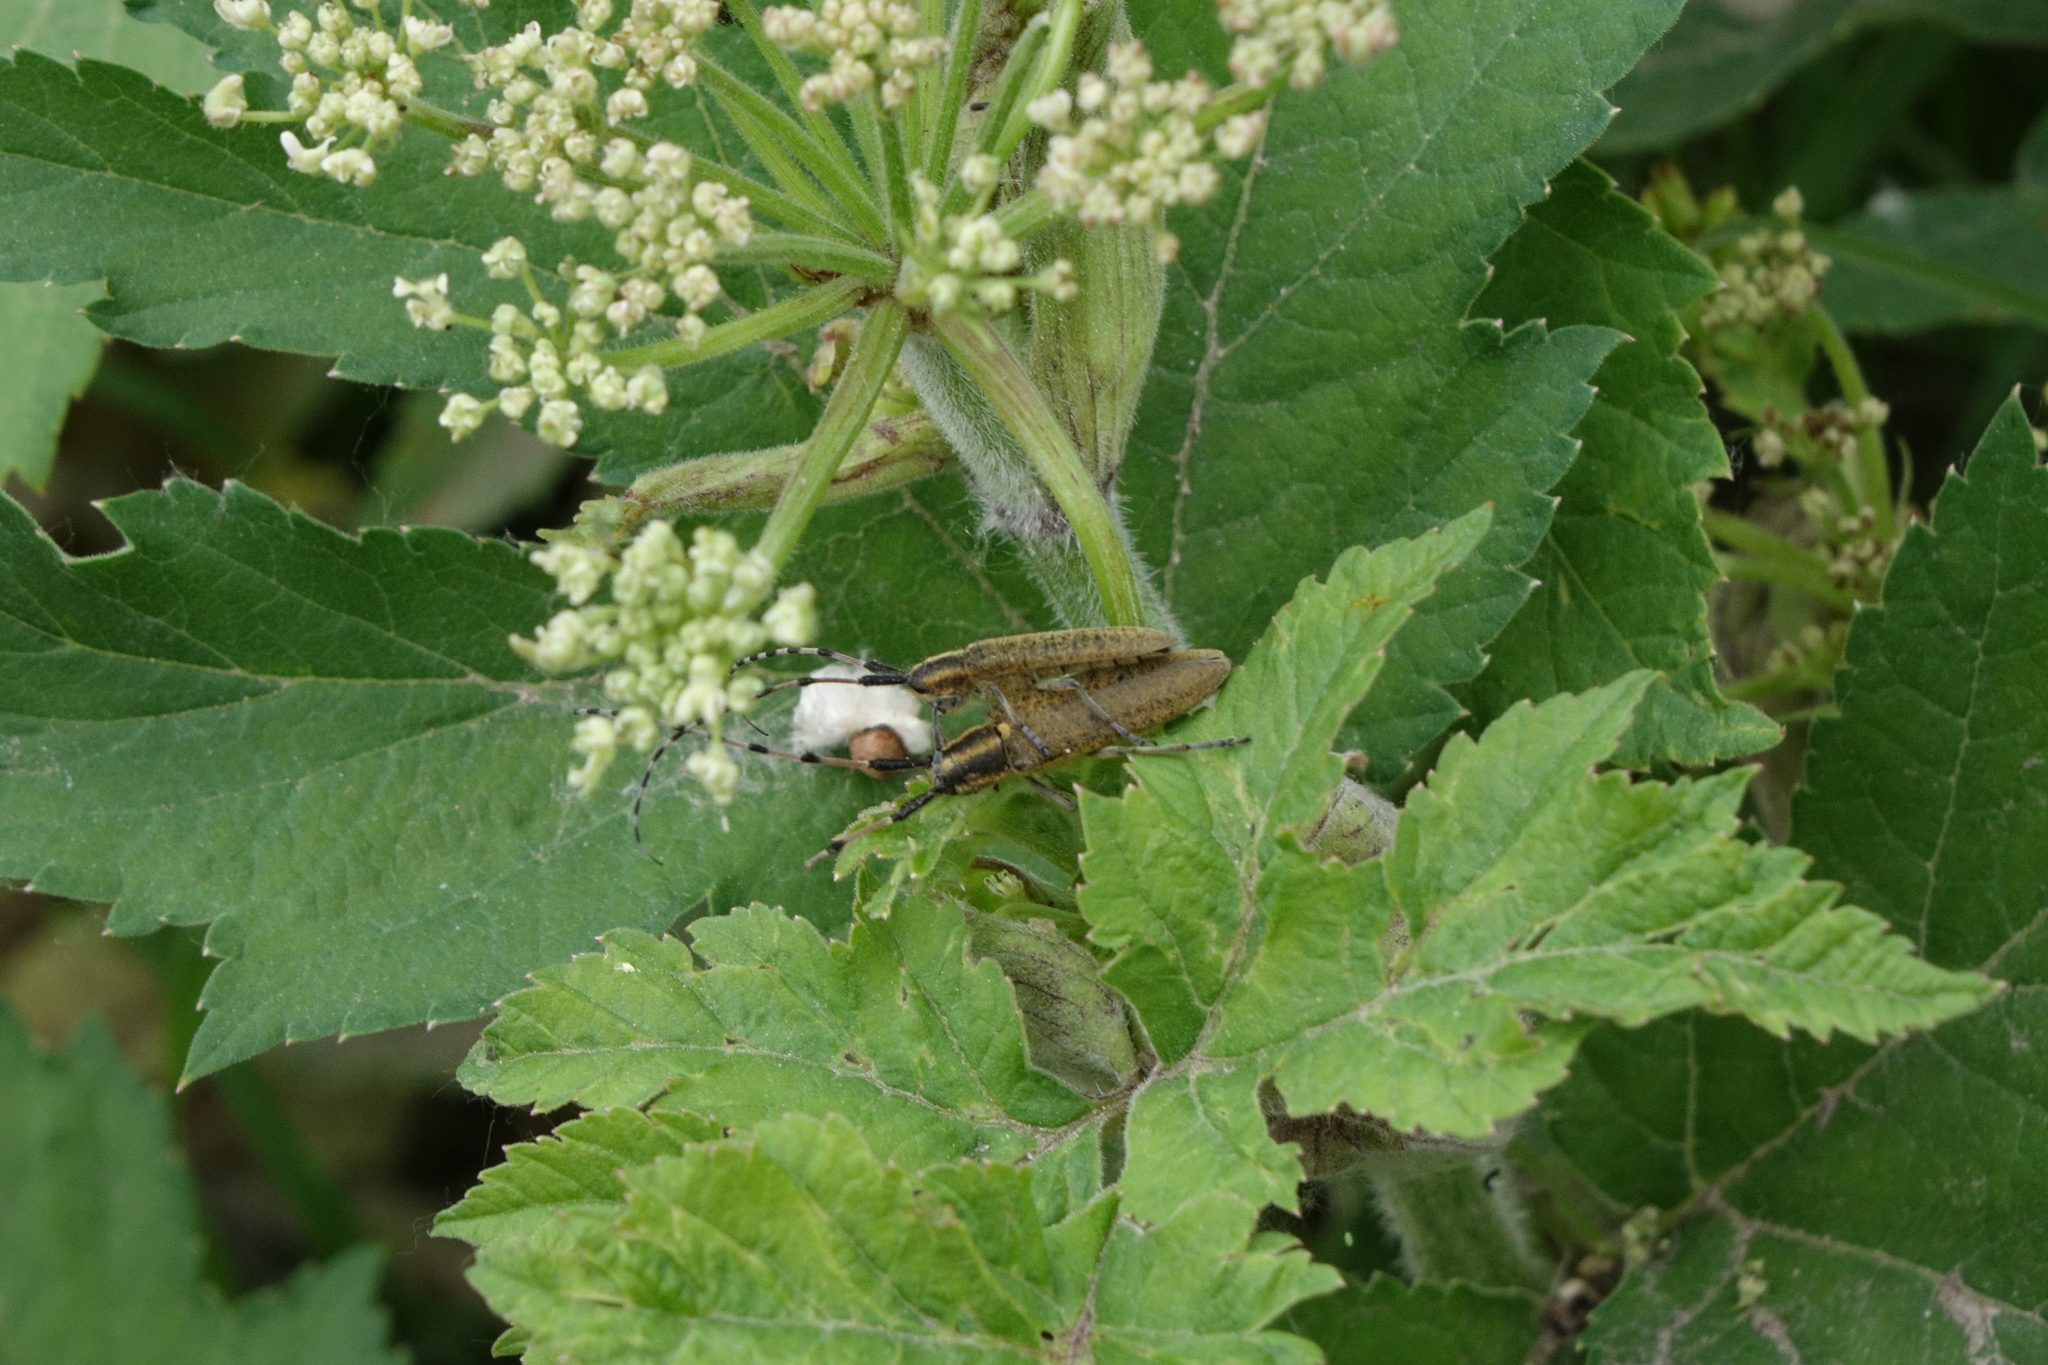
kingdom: Plantae
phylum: Tracheophyta
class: Magnoliopsida
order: Apiales
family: Apiaceae
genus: Heracleum
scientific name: Heracleum dissectum
